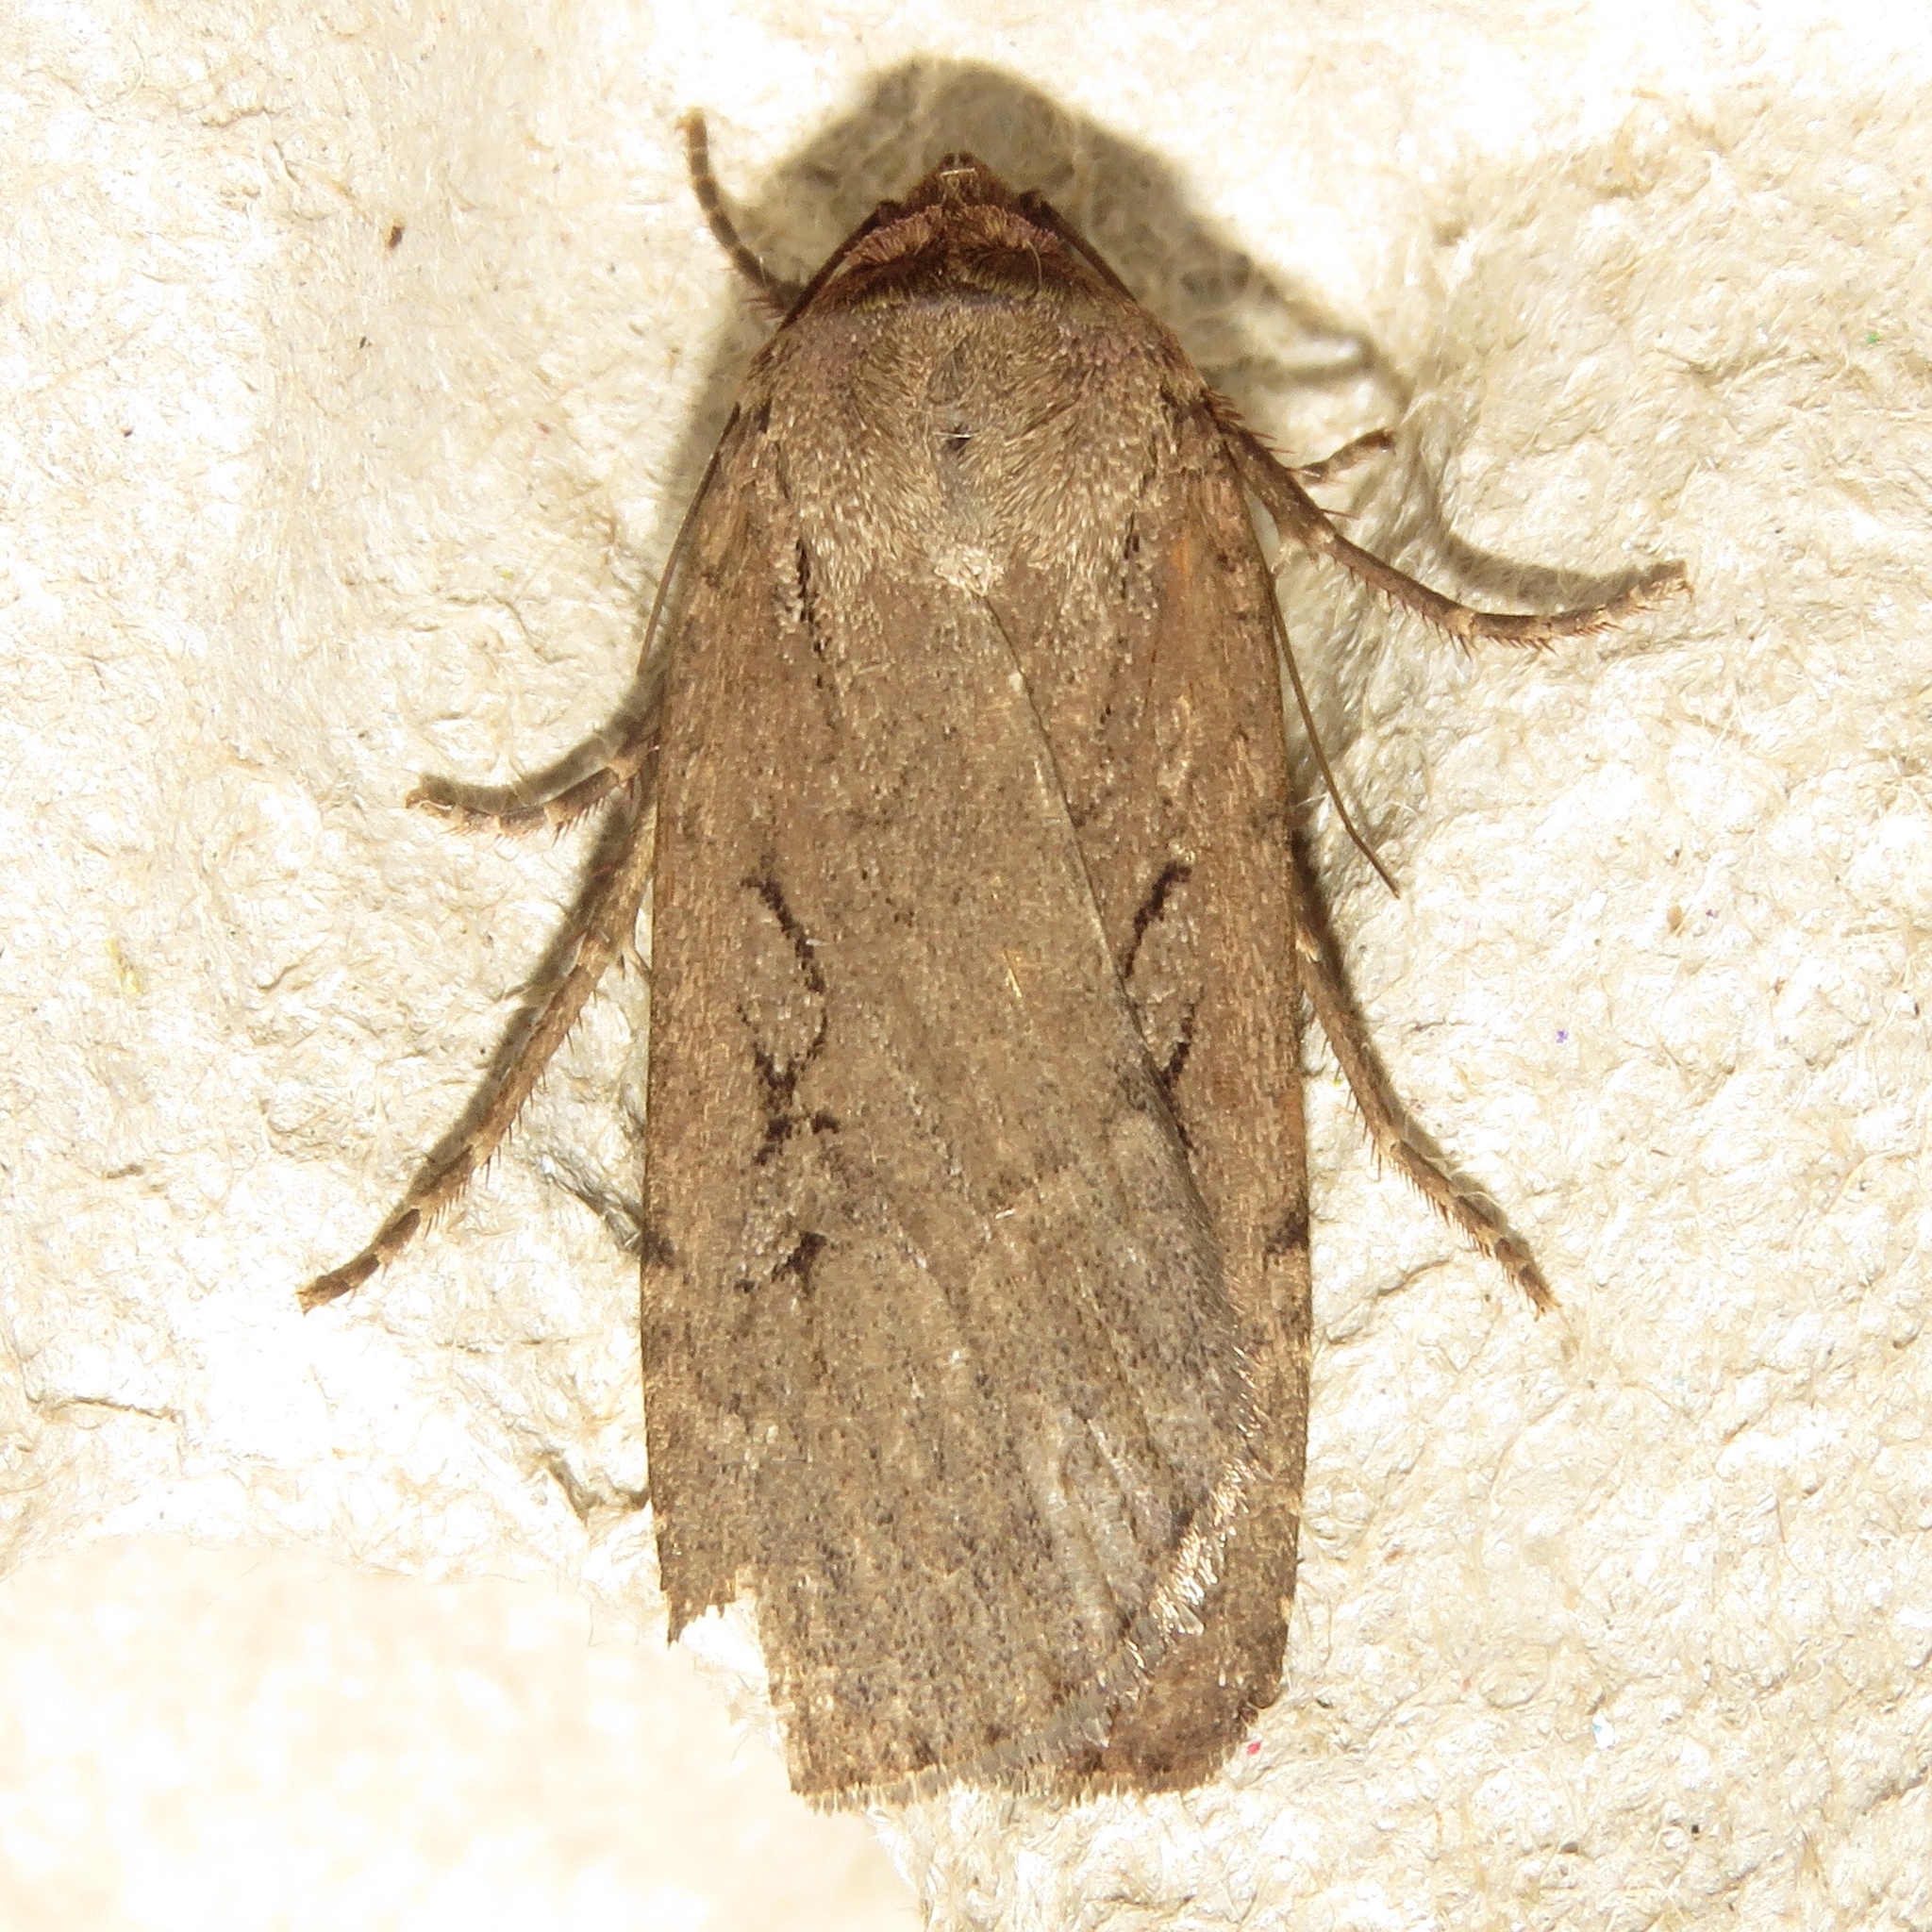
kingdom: Animalia
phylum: Arthropoda
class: Insecta
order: Lepidoptera
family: Noctuidae
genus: Spaelotis
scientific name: Spaelotis clandestina
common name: Clandestine dart
